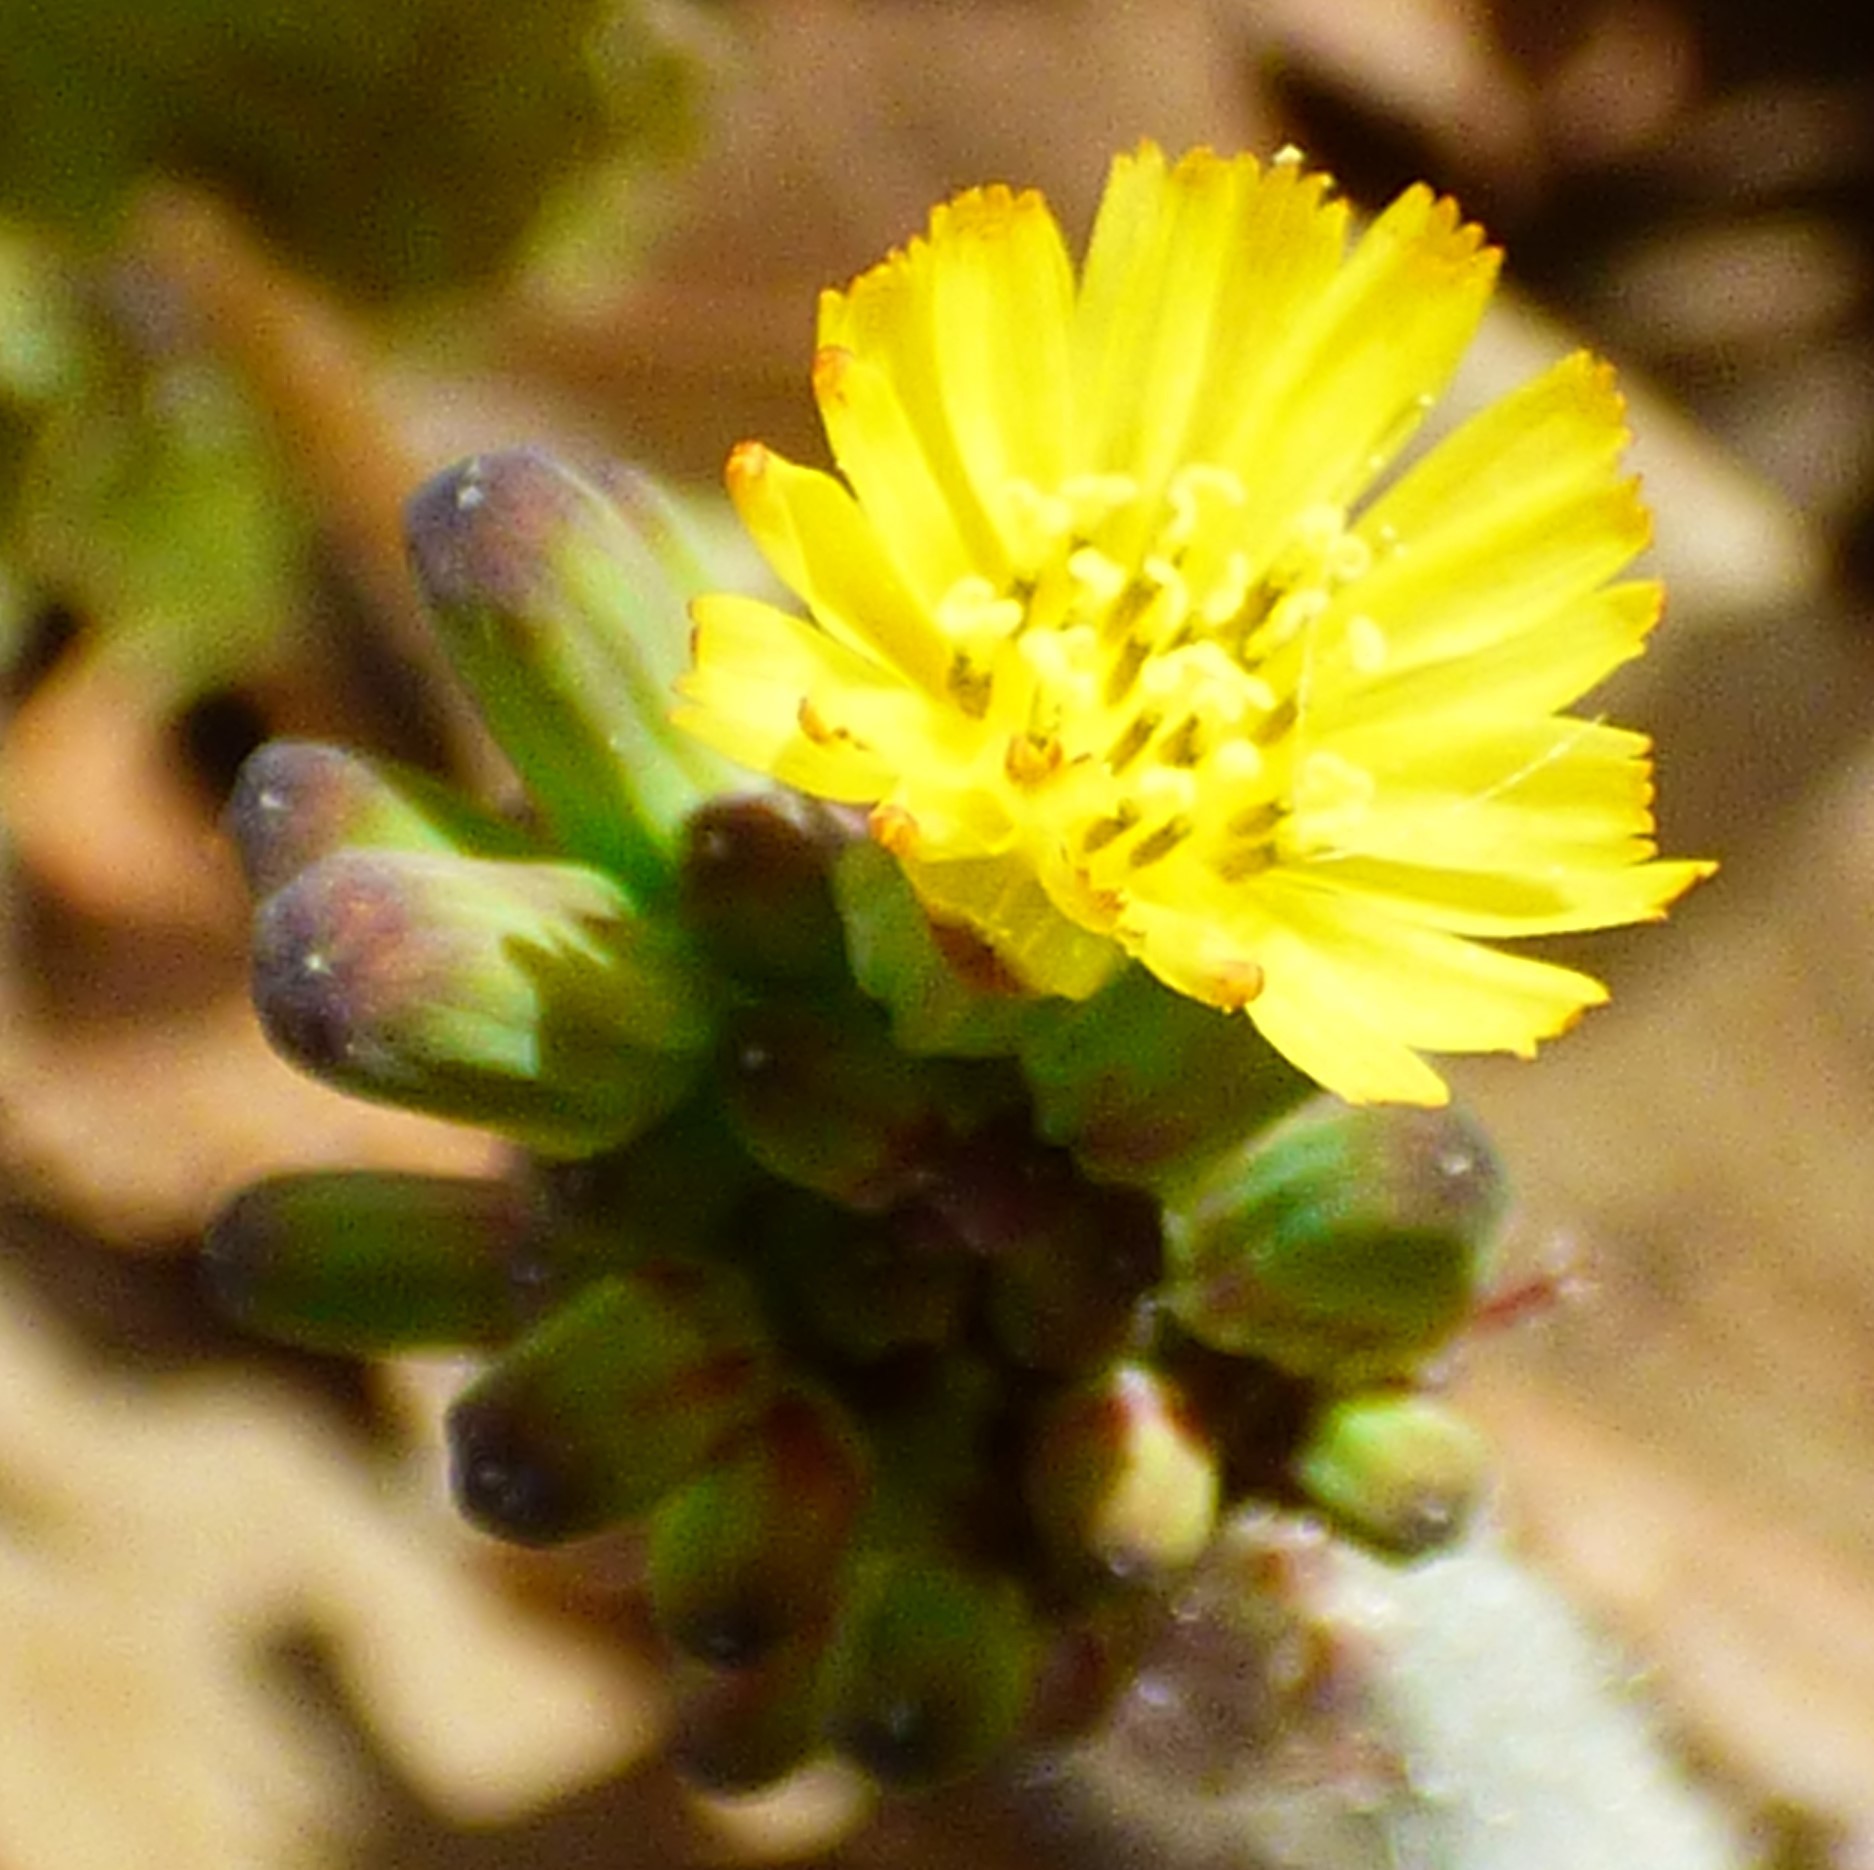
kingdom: Plantae
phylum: Tracheophyta
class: Magnoliopsida
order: Asterales
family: Asteraceae
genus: Youngia
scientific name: Youngia japonica
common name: Oriental false hawksbeard
